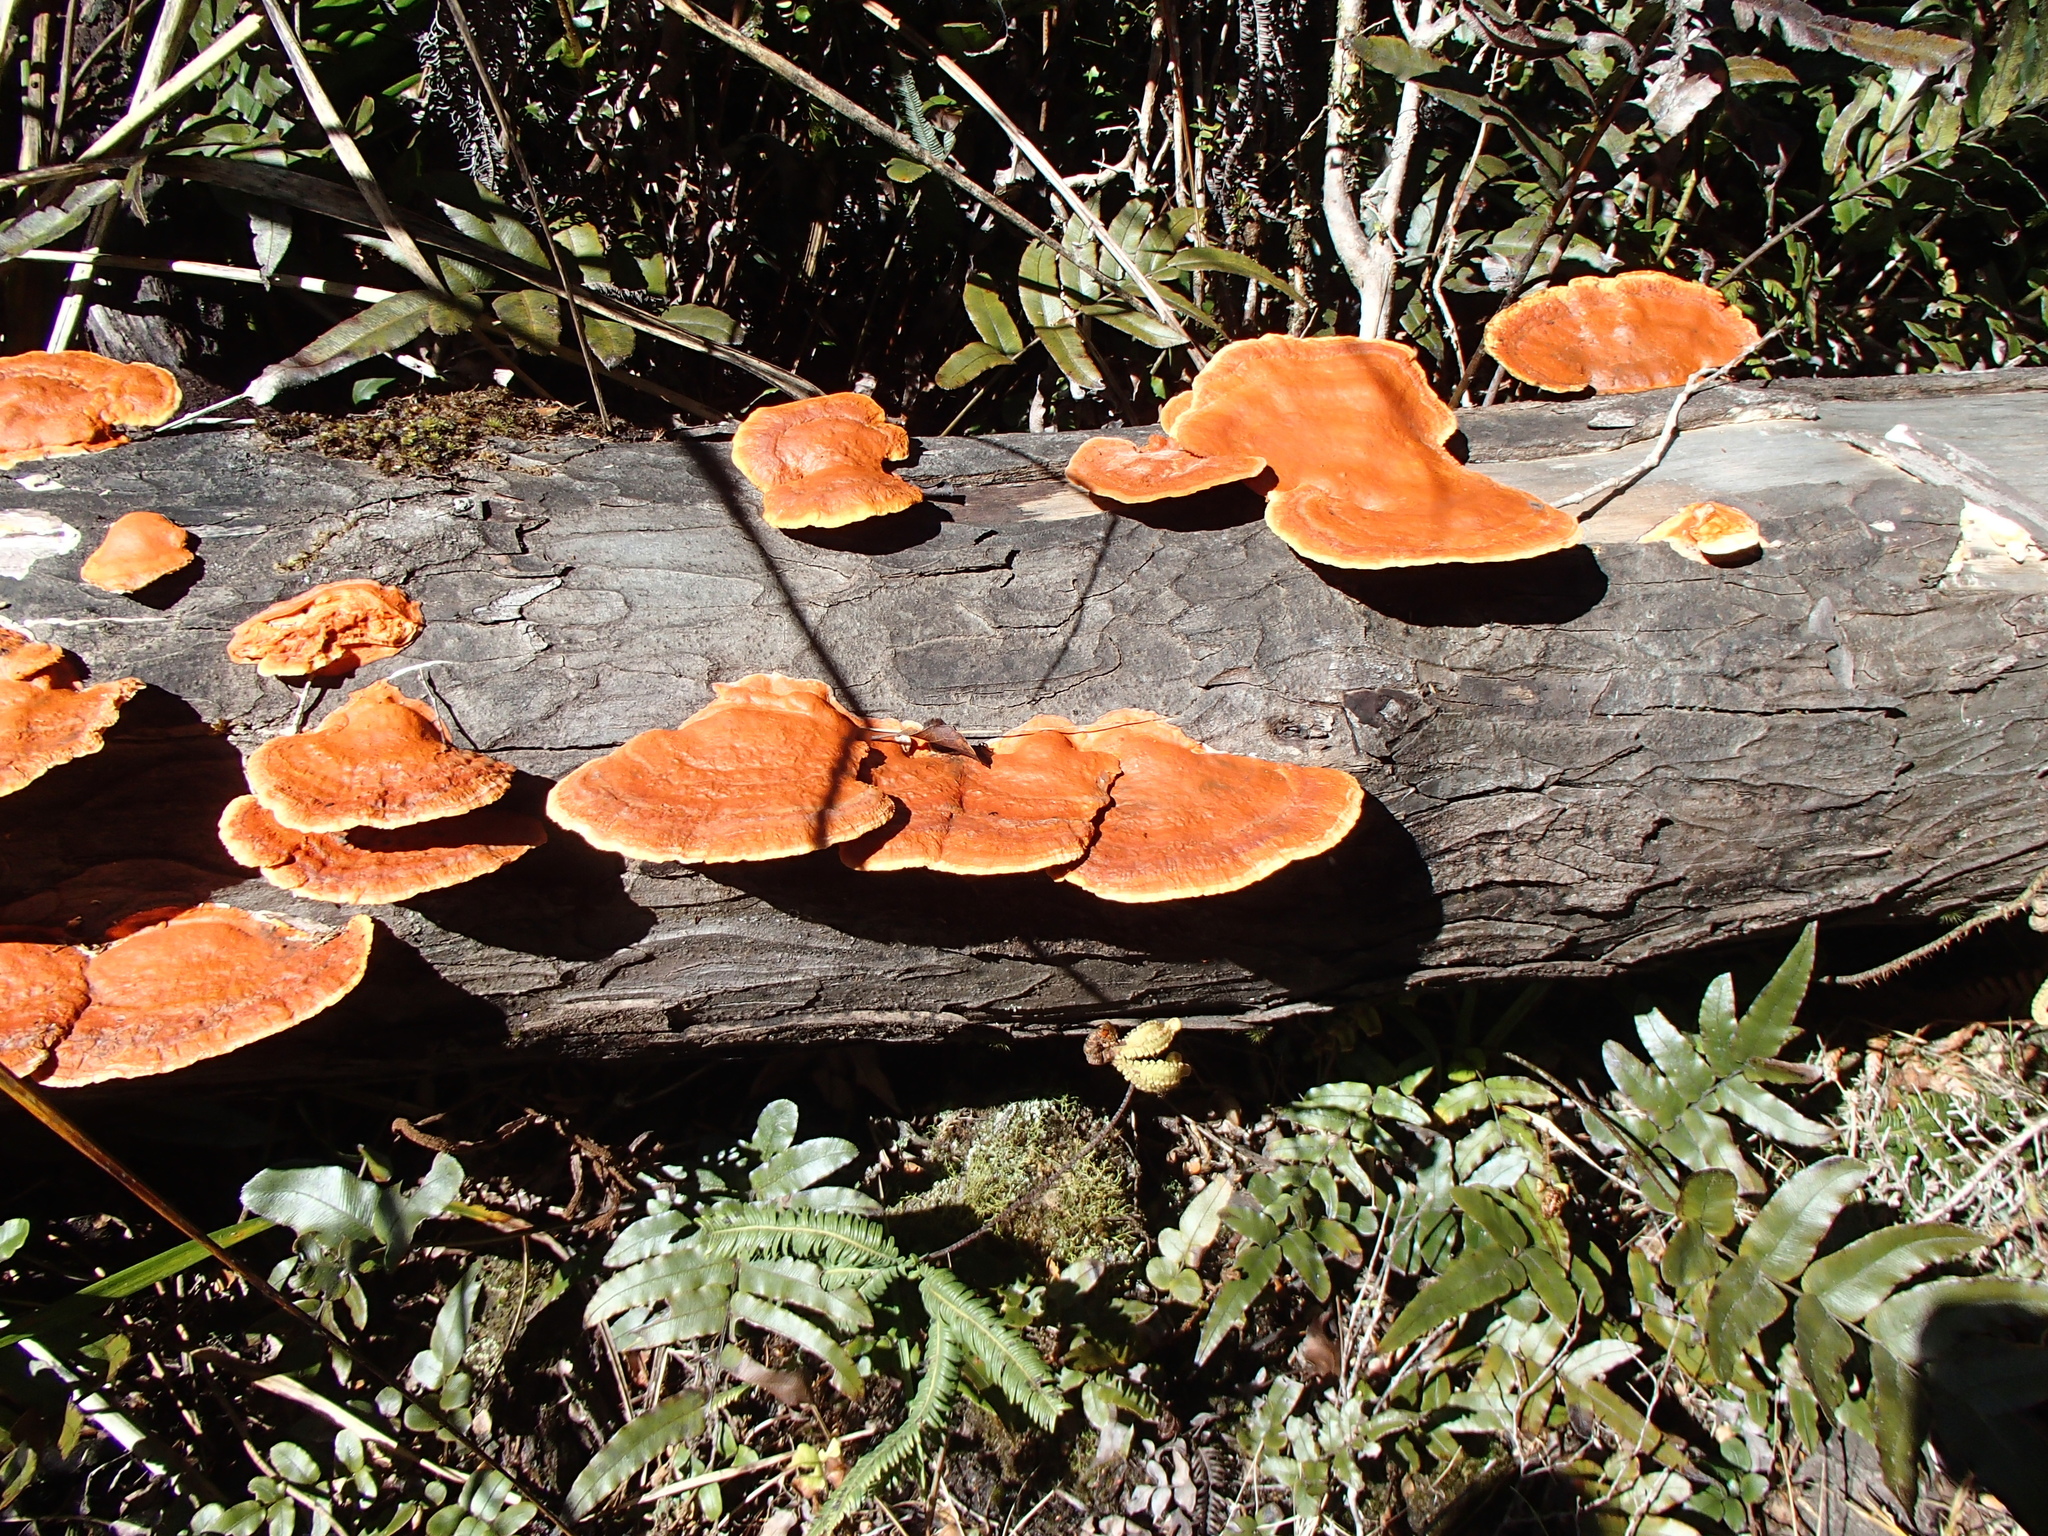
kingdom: Fungi
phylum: Basidiomycota
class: Agaricomycetes
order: Polyporales
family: Polyporaceae
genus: Trametes
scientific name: Trametes coccinea
